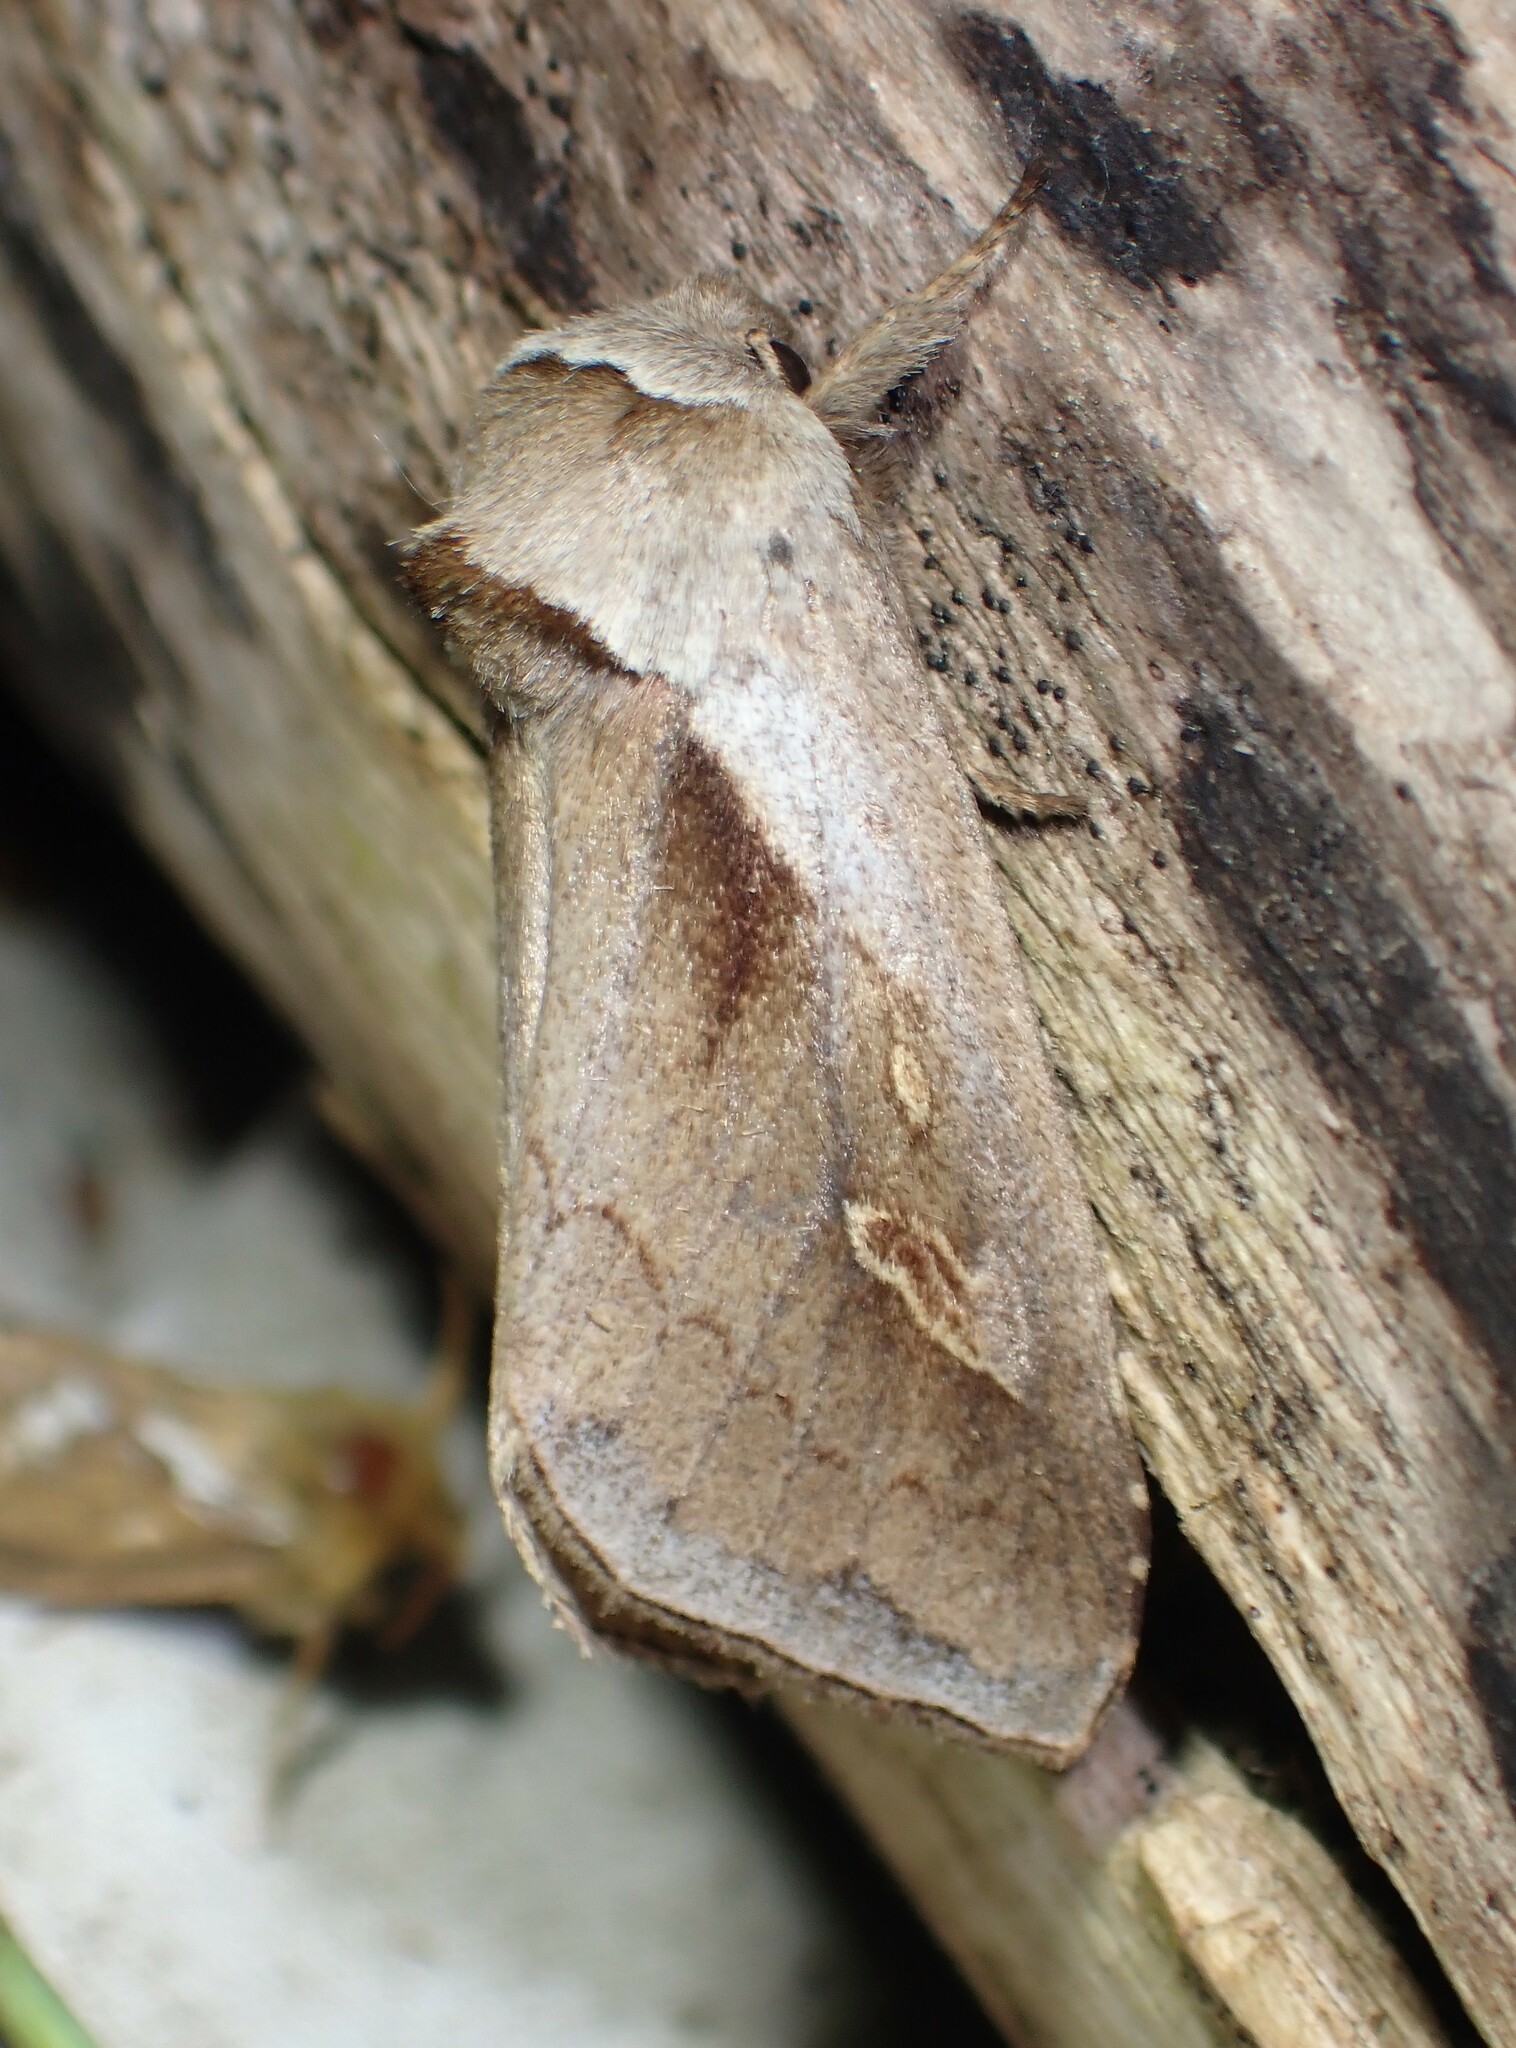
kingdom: Animalia
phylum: Arthropoda
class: Insecta
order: Lepidoptera
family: Noctuidae
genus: Bellura
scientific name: Bellura obliqua
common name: Cattail borer moth
